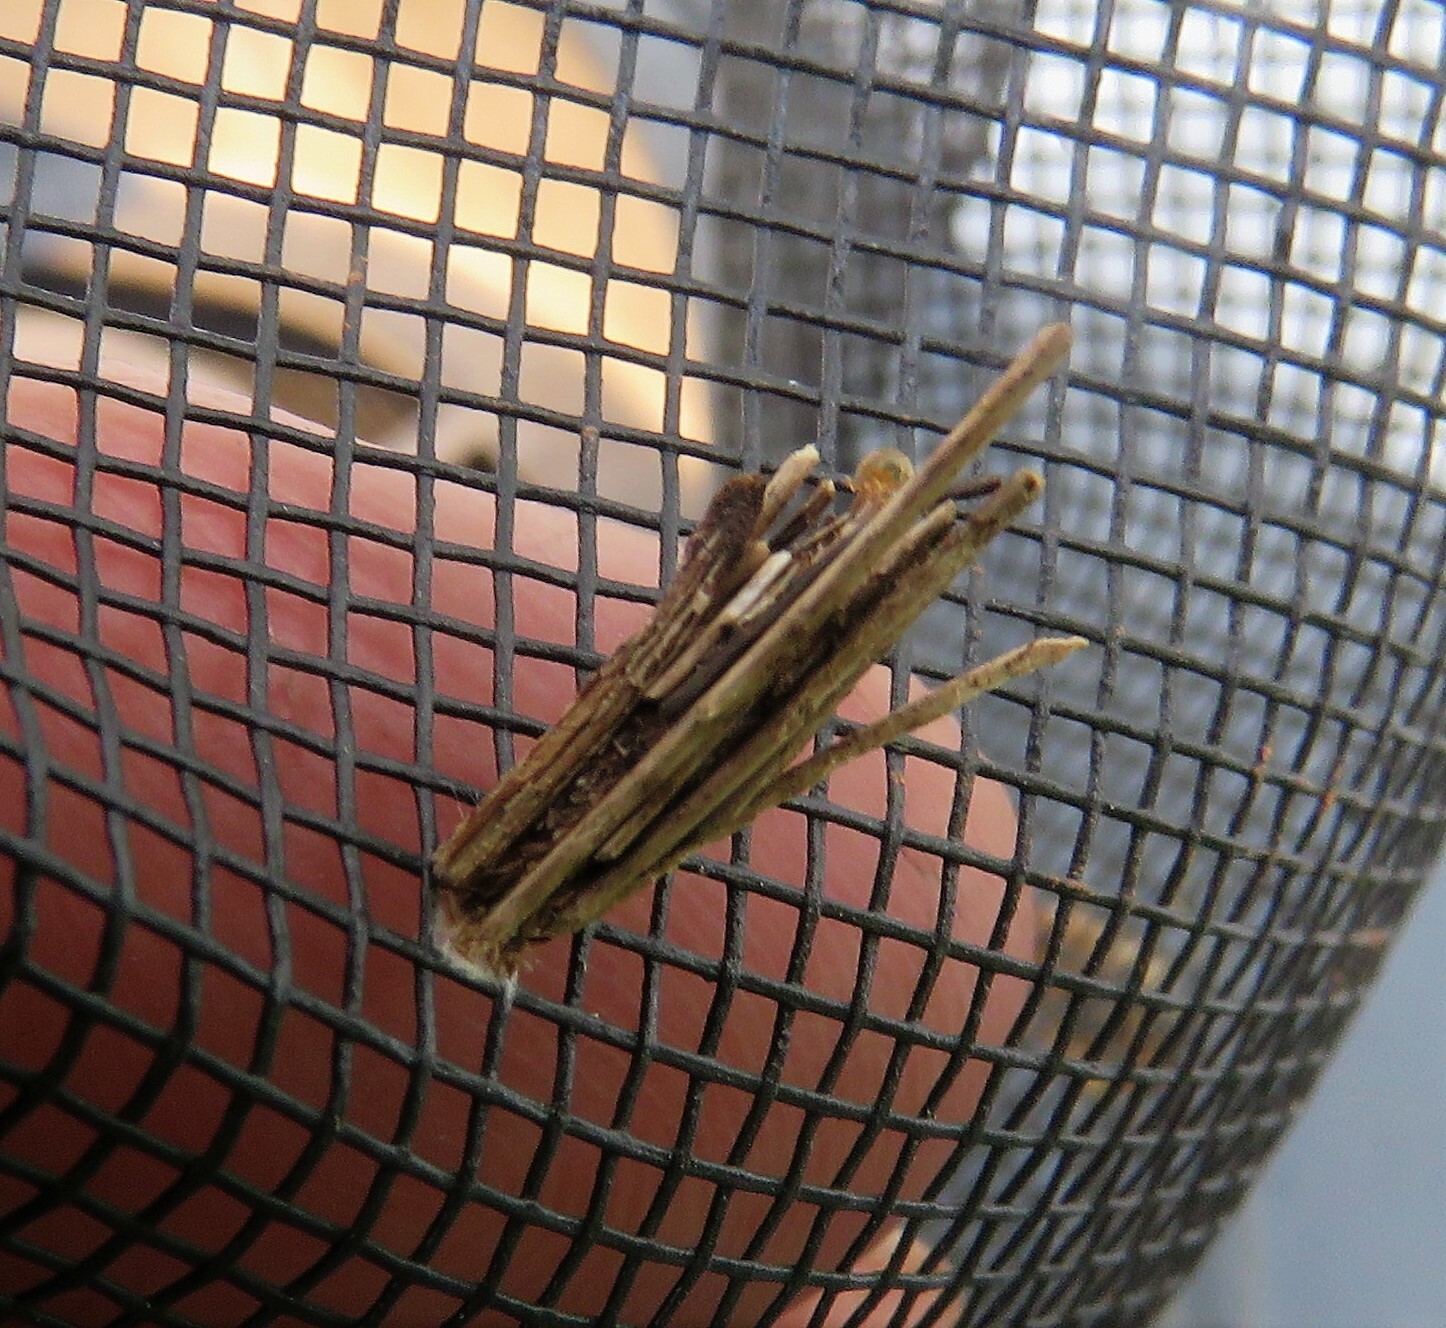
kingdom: Animalia
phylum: Arthropoda
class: Insecta
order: Lepidoptera
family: Psychidae
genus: Psyche
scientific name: Psyche casta
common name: Common sweep
